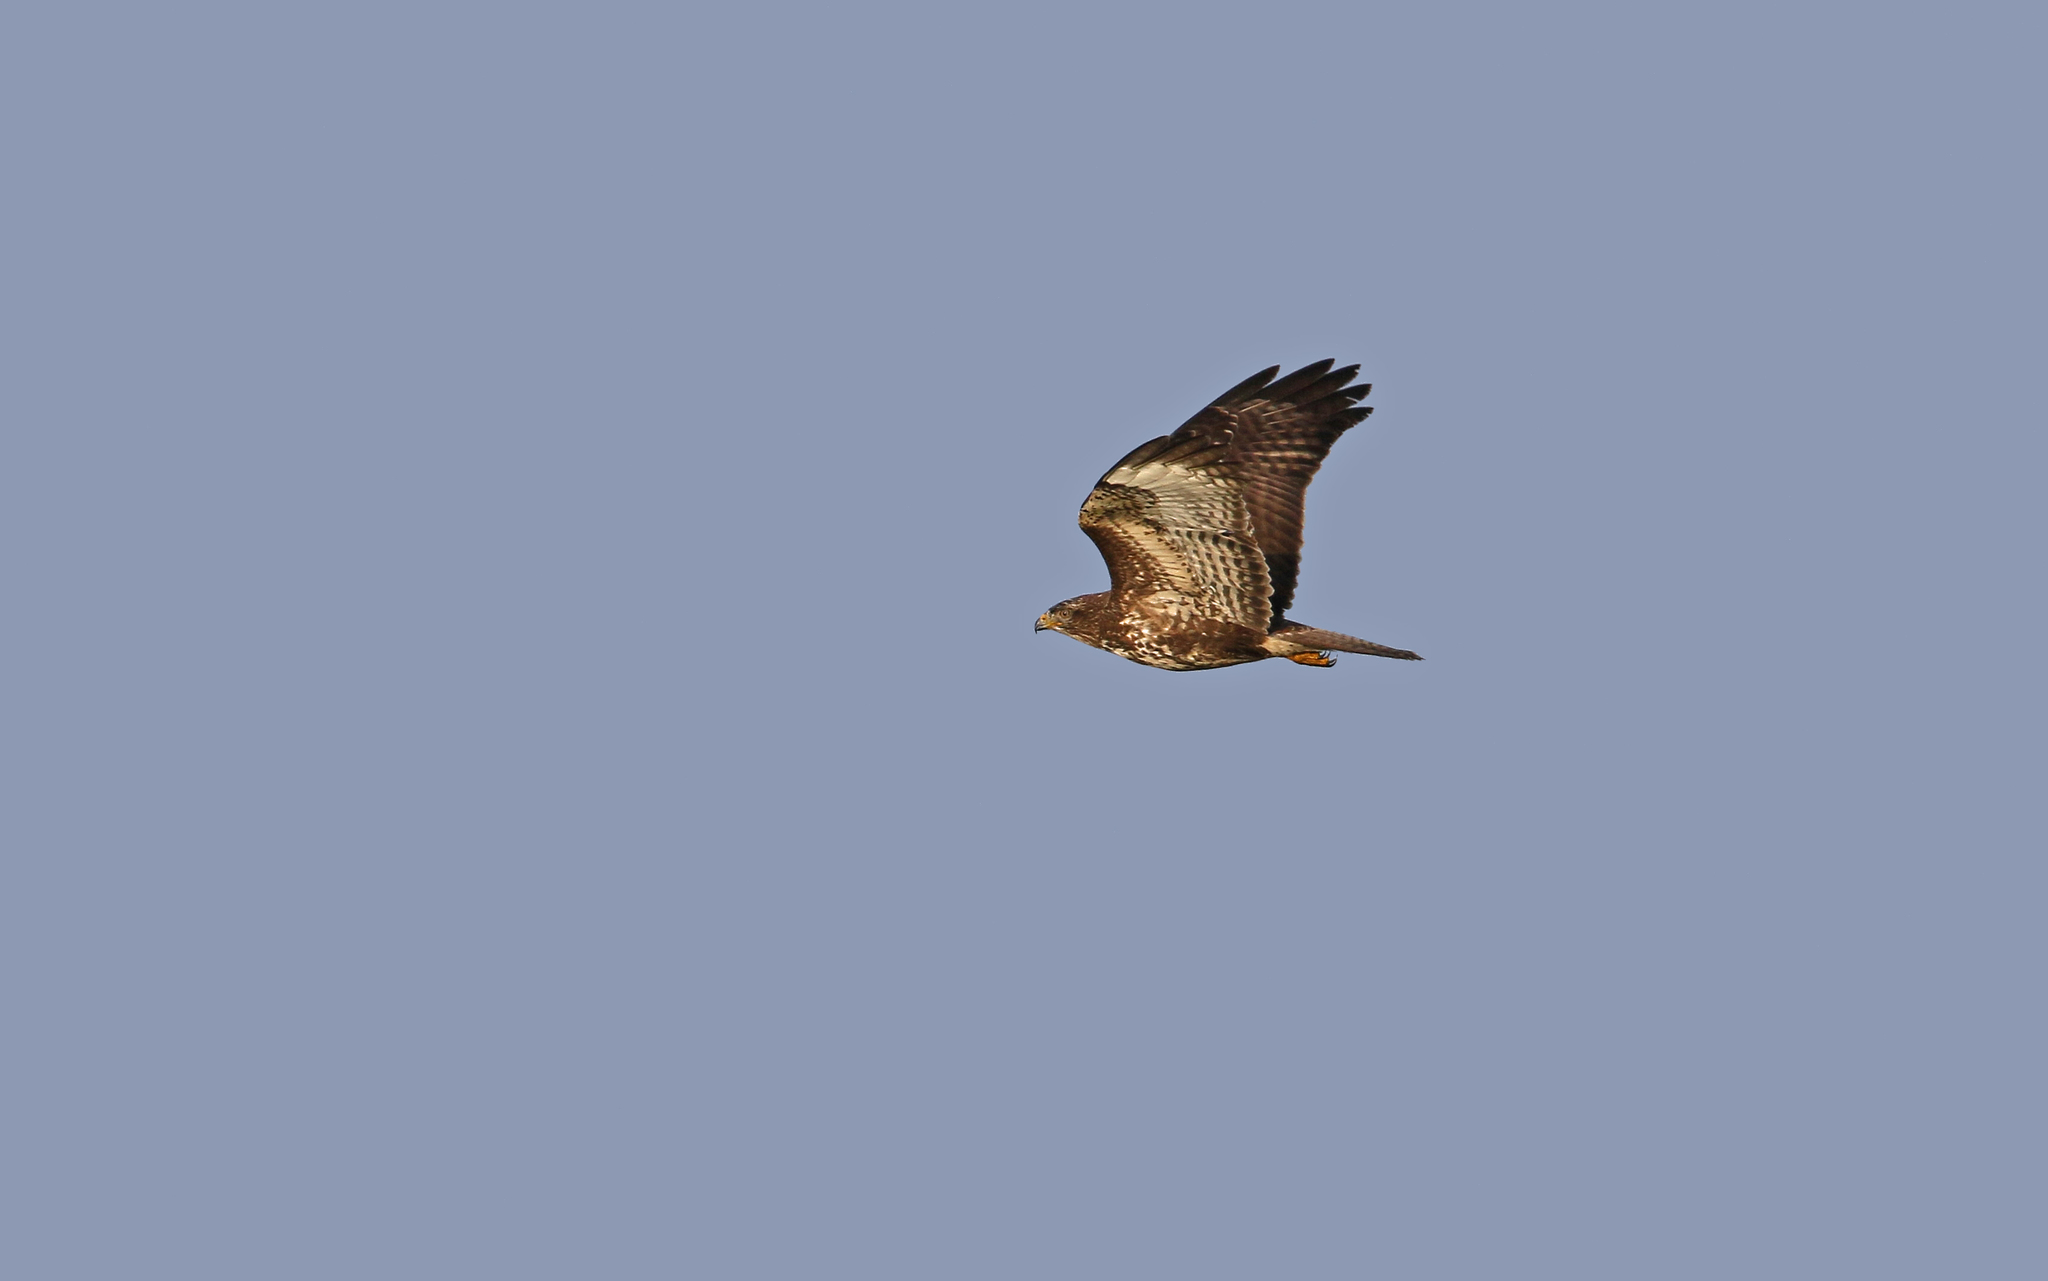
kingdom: Animalia
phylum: Chordata
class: Aves
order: Accipitriformes
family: Accipitridae
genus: Buteo
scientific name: Buteo buteo
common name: Common buzzard
